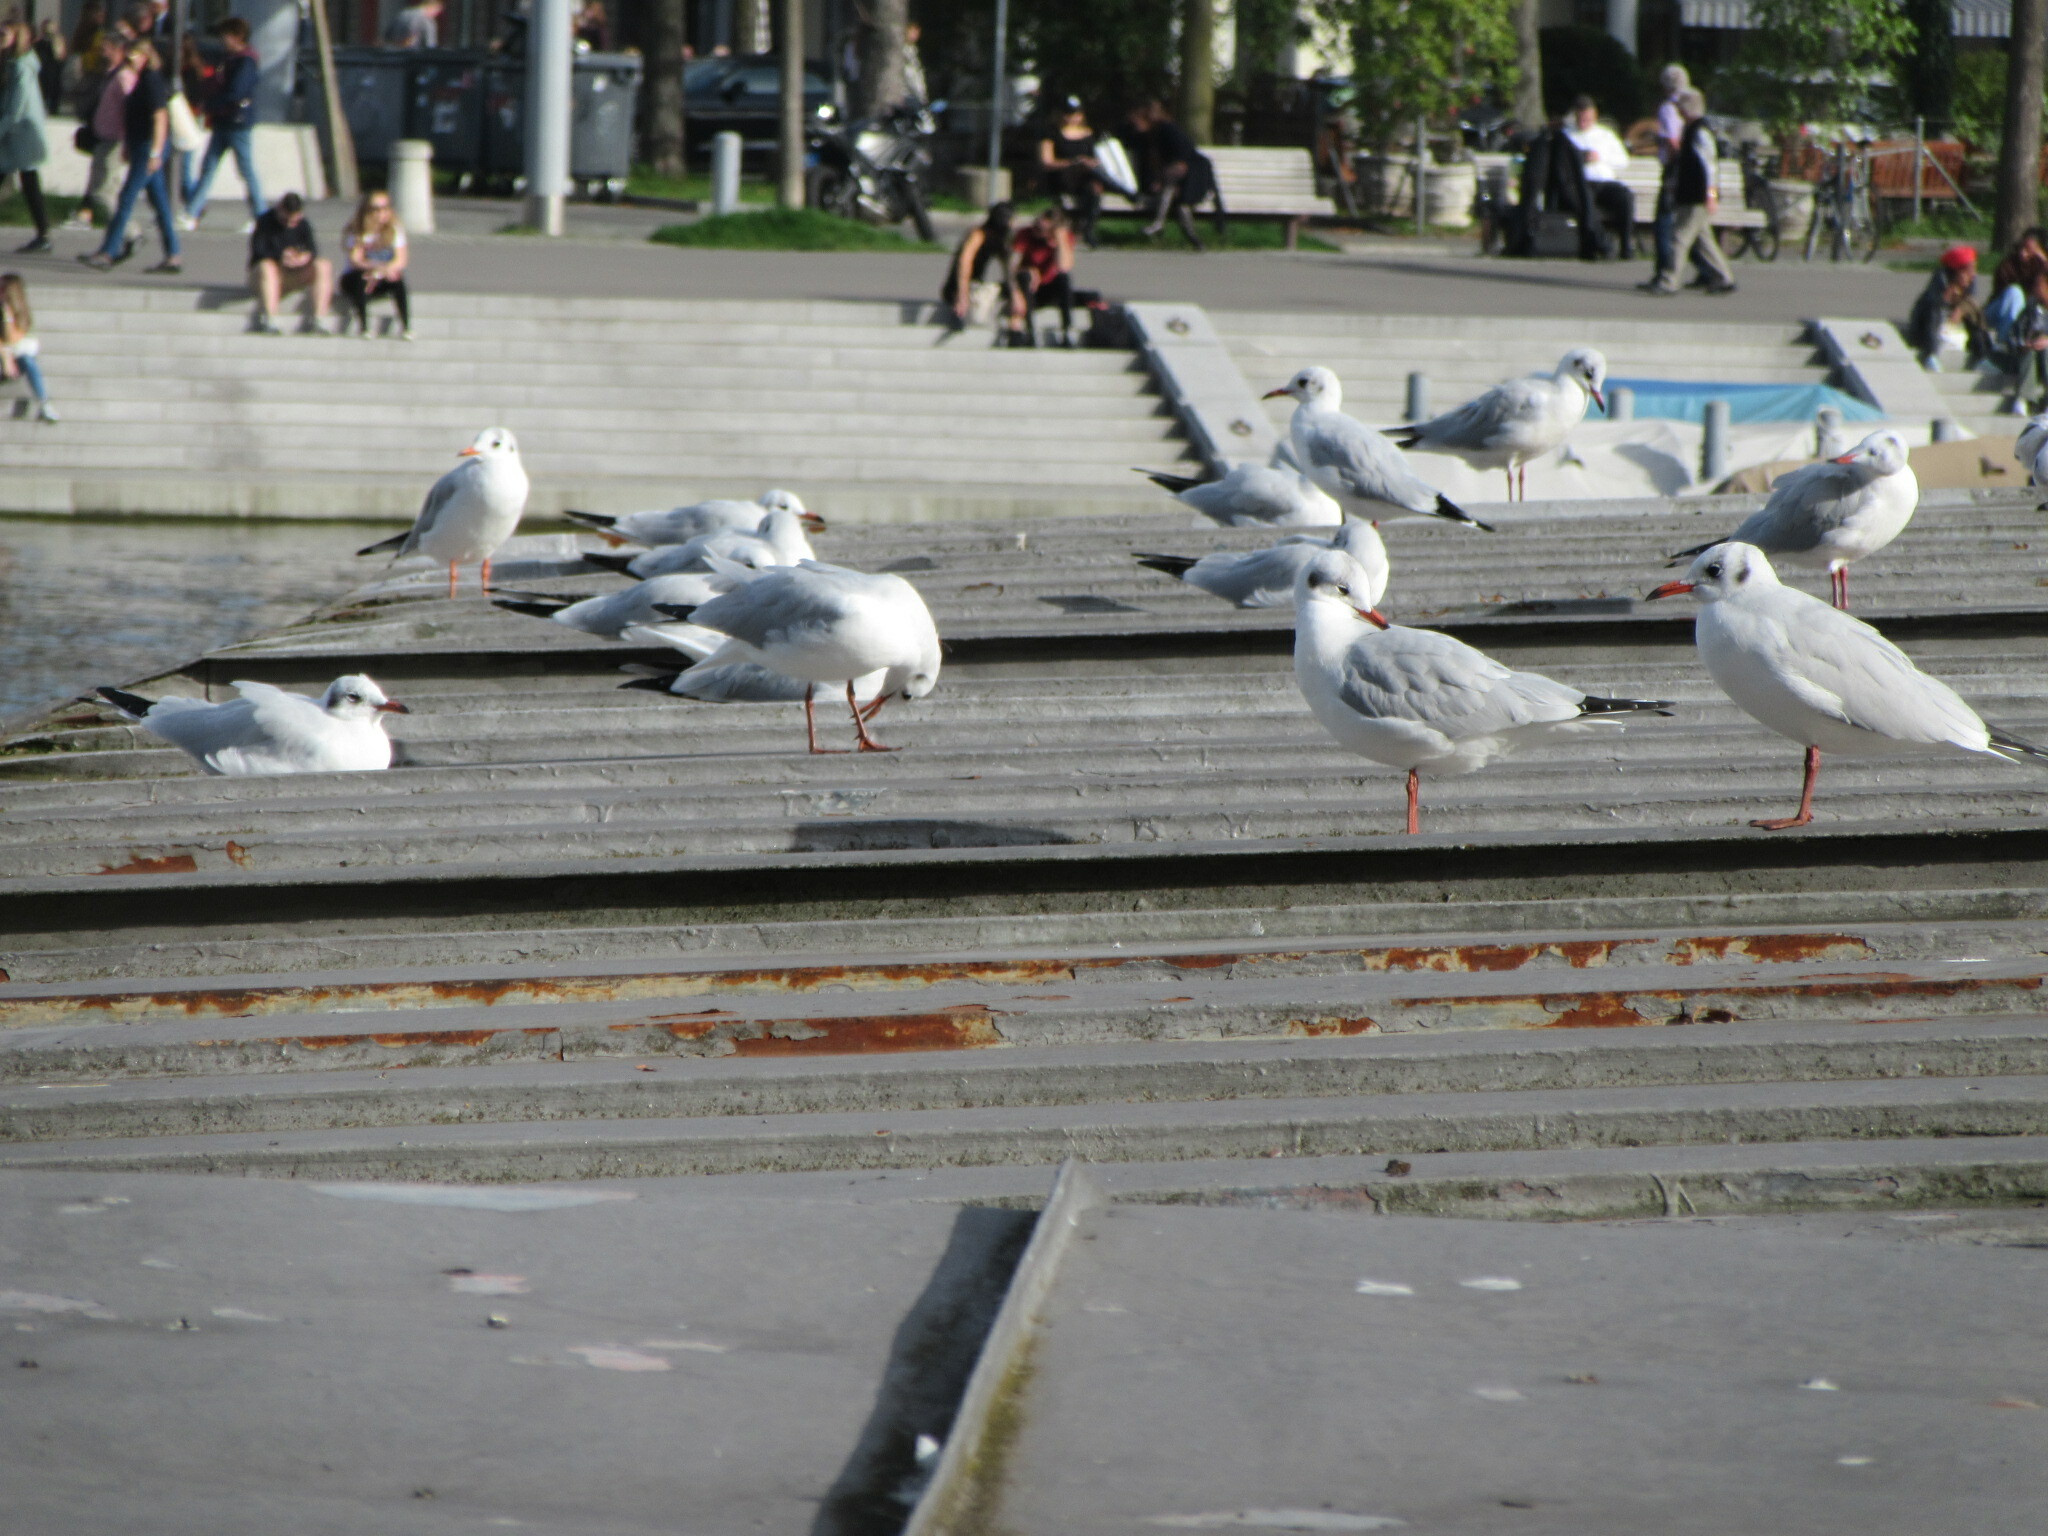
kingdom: Animalia
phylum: Chordata
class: Aves
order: Charadriiformes
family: Laridae
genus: Chroicocephalus
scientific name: Chroicocephalus ridibundus
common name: Black-headed gull
